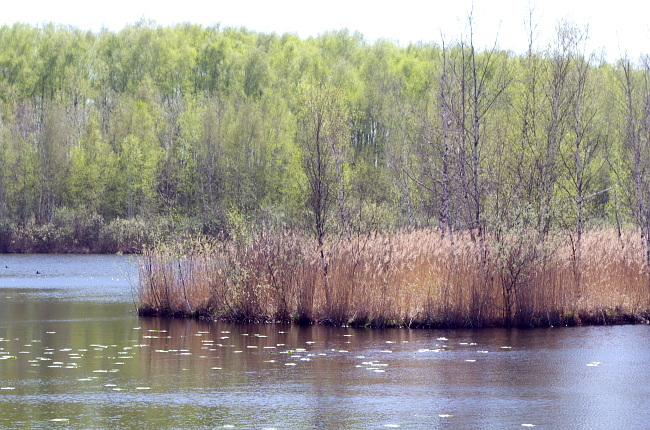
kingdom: Plantae
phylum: Tracheophyta
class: Liliopsida
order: Poales
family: Poaceae
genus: Phragmites
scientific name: Phragmites australis
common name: Common reed
